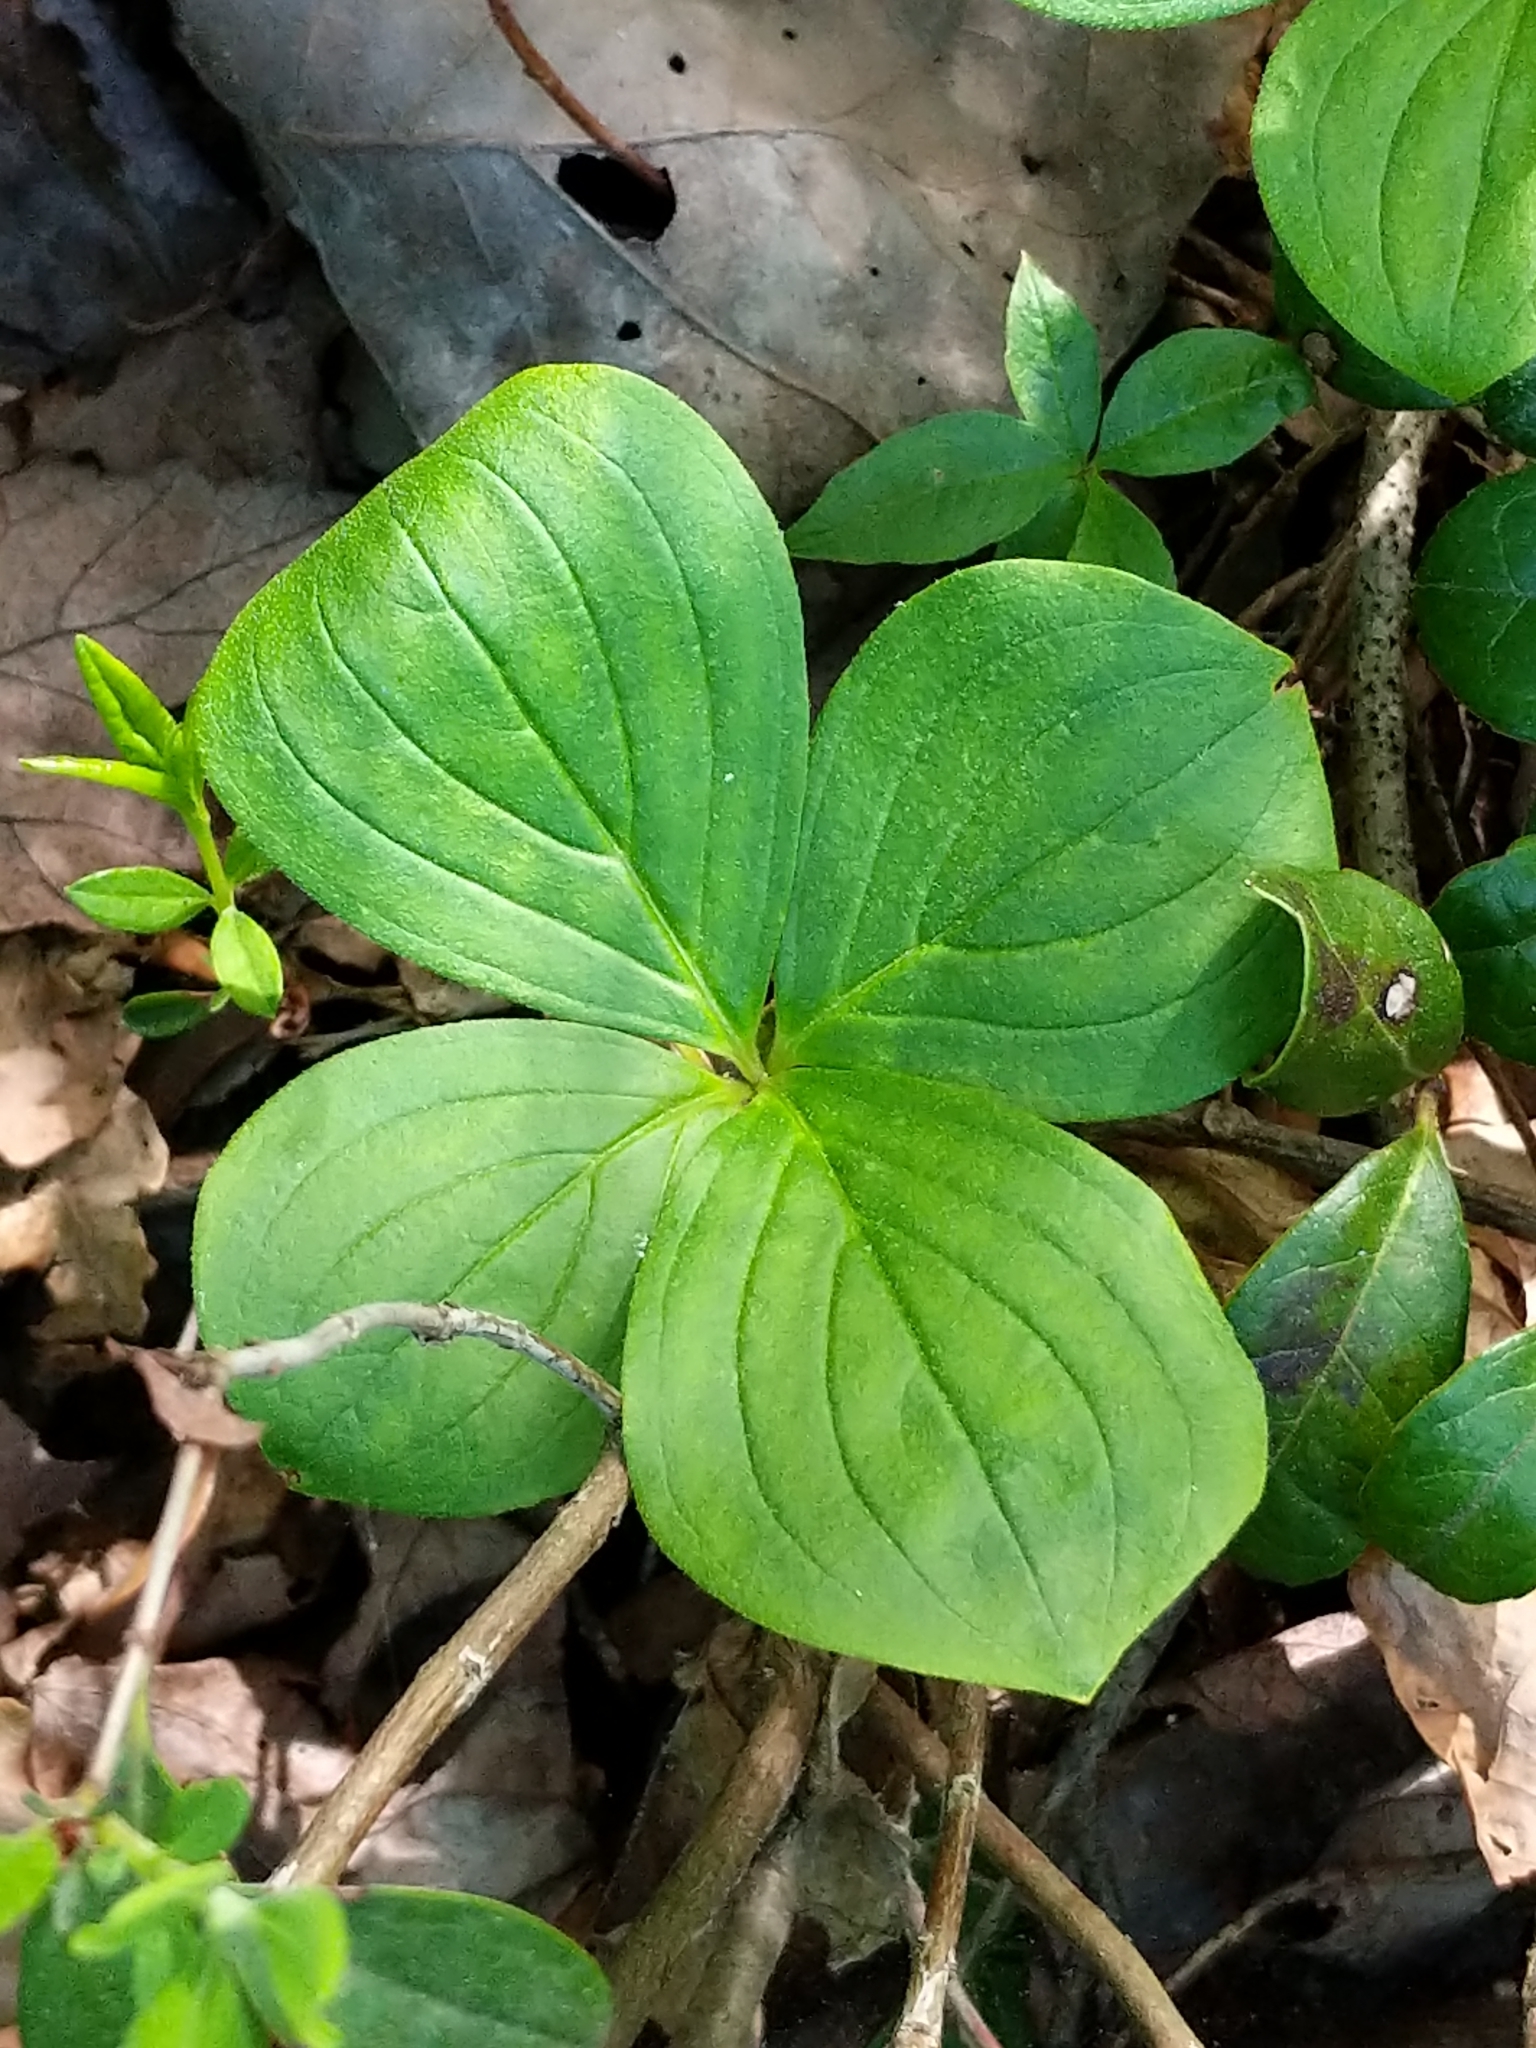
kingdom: Plantae
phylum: Tracheophyta
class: Magnoliopsida
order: Cornales
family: Cornaceae
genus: Cornus
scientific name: Cornus canadensis
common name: Creeping dogwood
